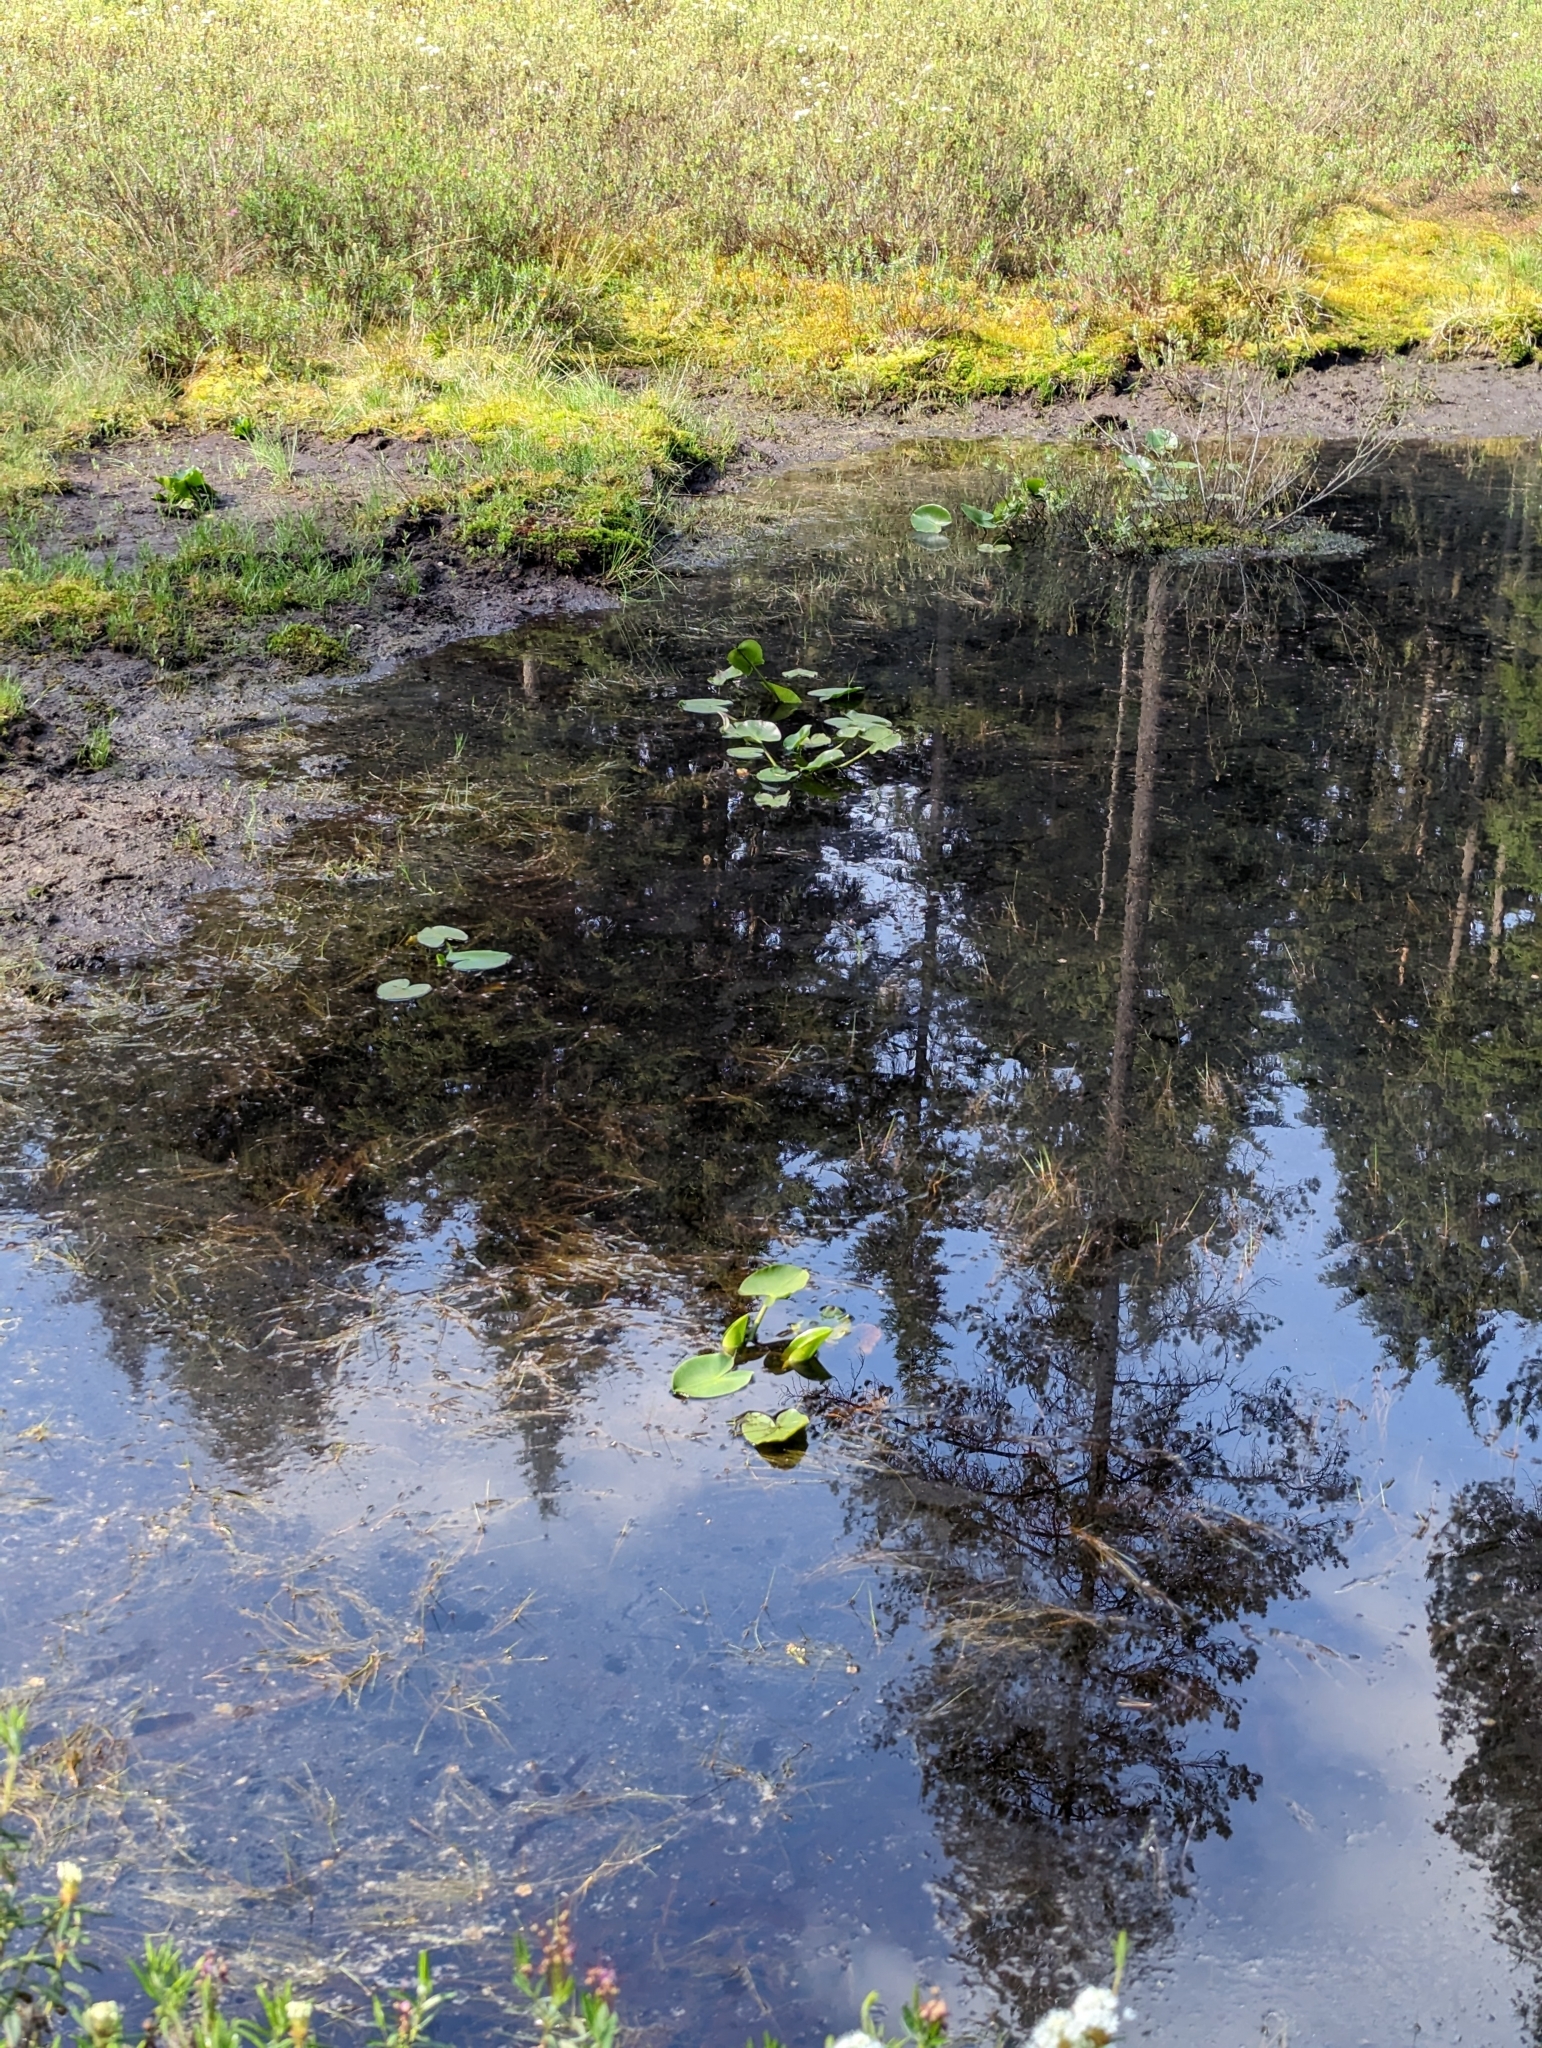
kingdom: Plantae
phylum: Tracheophyta
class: Magnoliopsida
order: Nymphaeales
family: Nymphaeaceae
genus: Nuphar
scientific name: Nuphar polysepala
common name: Rocky mountain cow-lily
